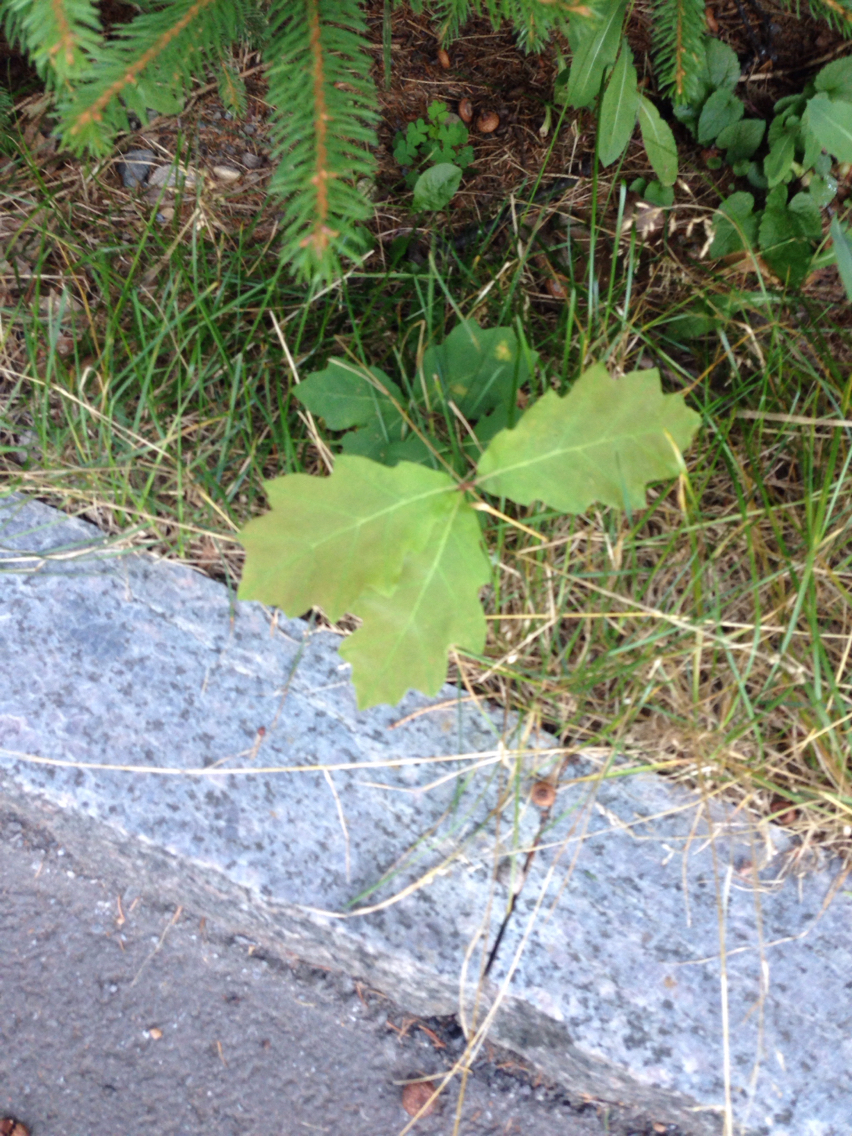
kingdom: Plantae
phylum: Tracheophyta
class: Magnoliopsida
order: Fagales
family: Fagaceae
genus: Quercus
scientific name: Quercus rubra
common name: Red oak
